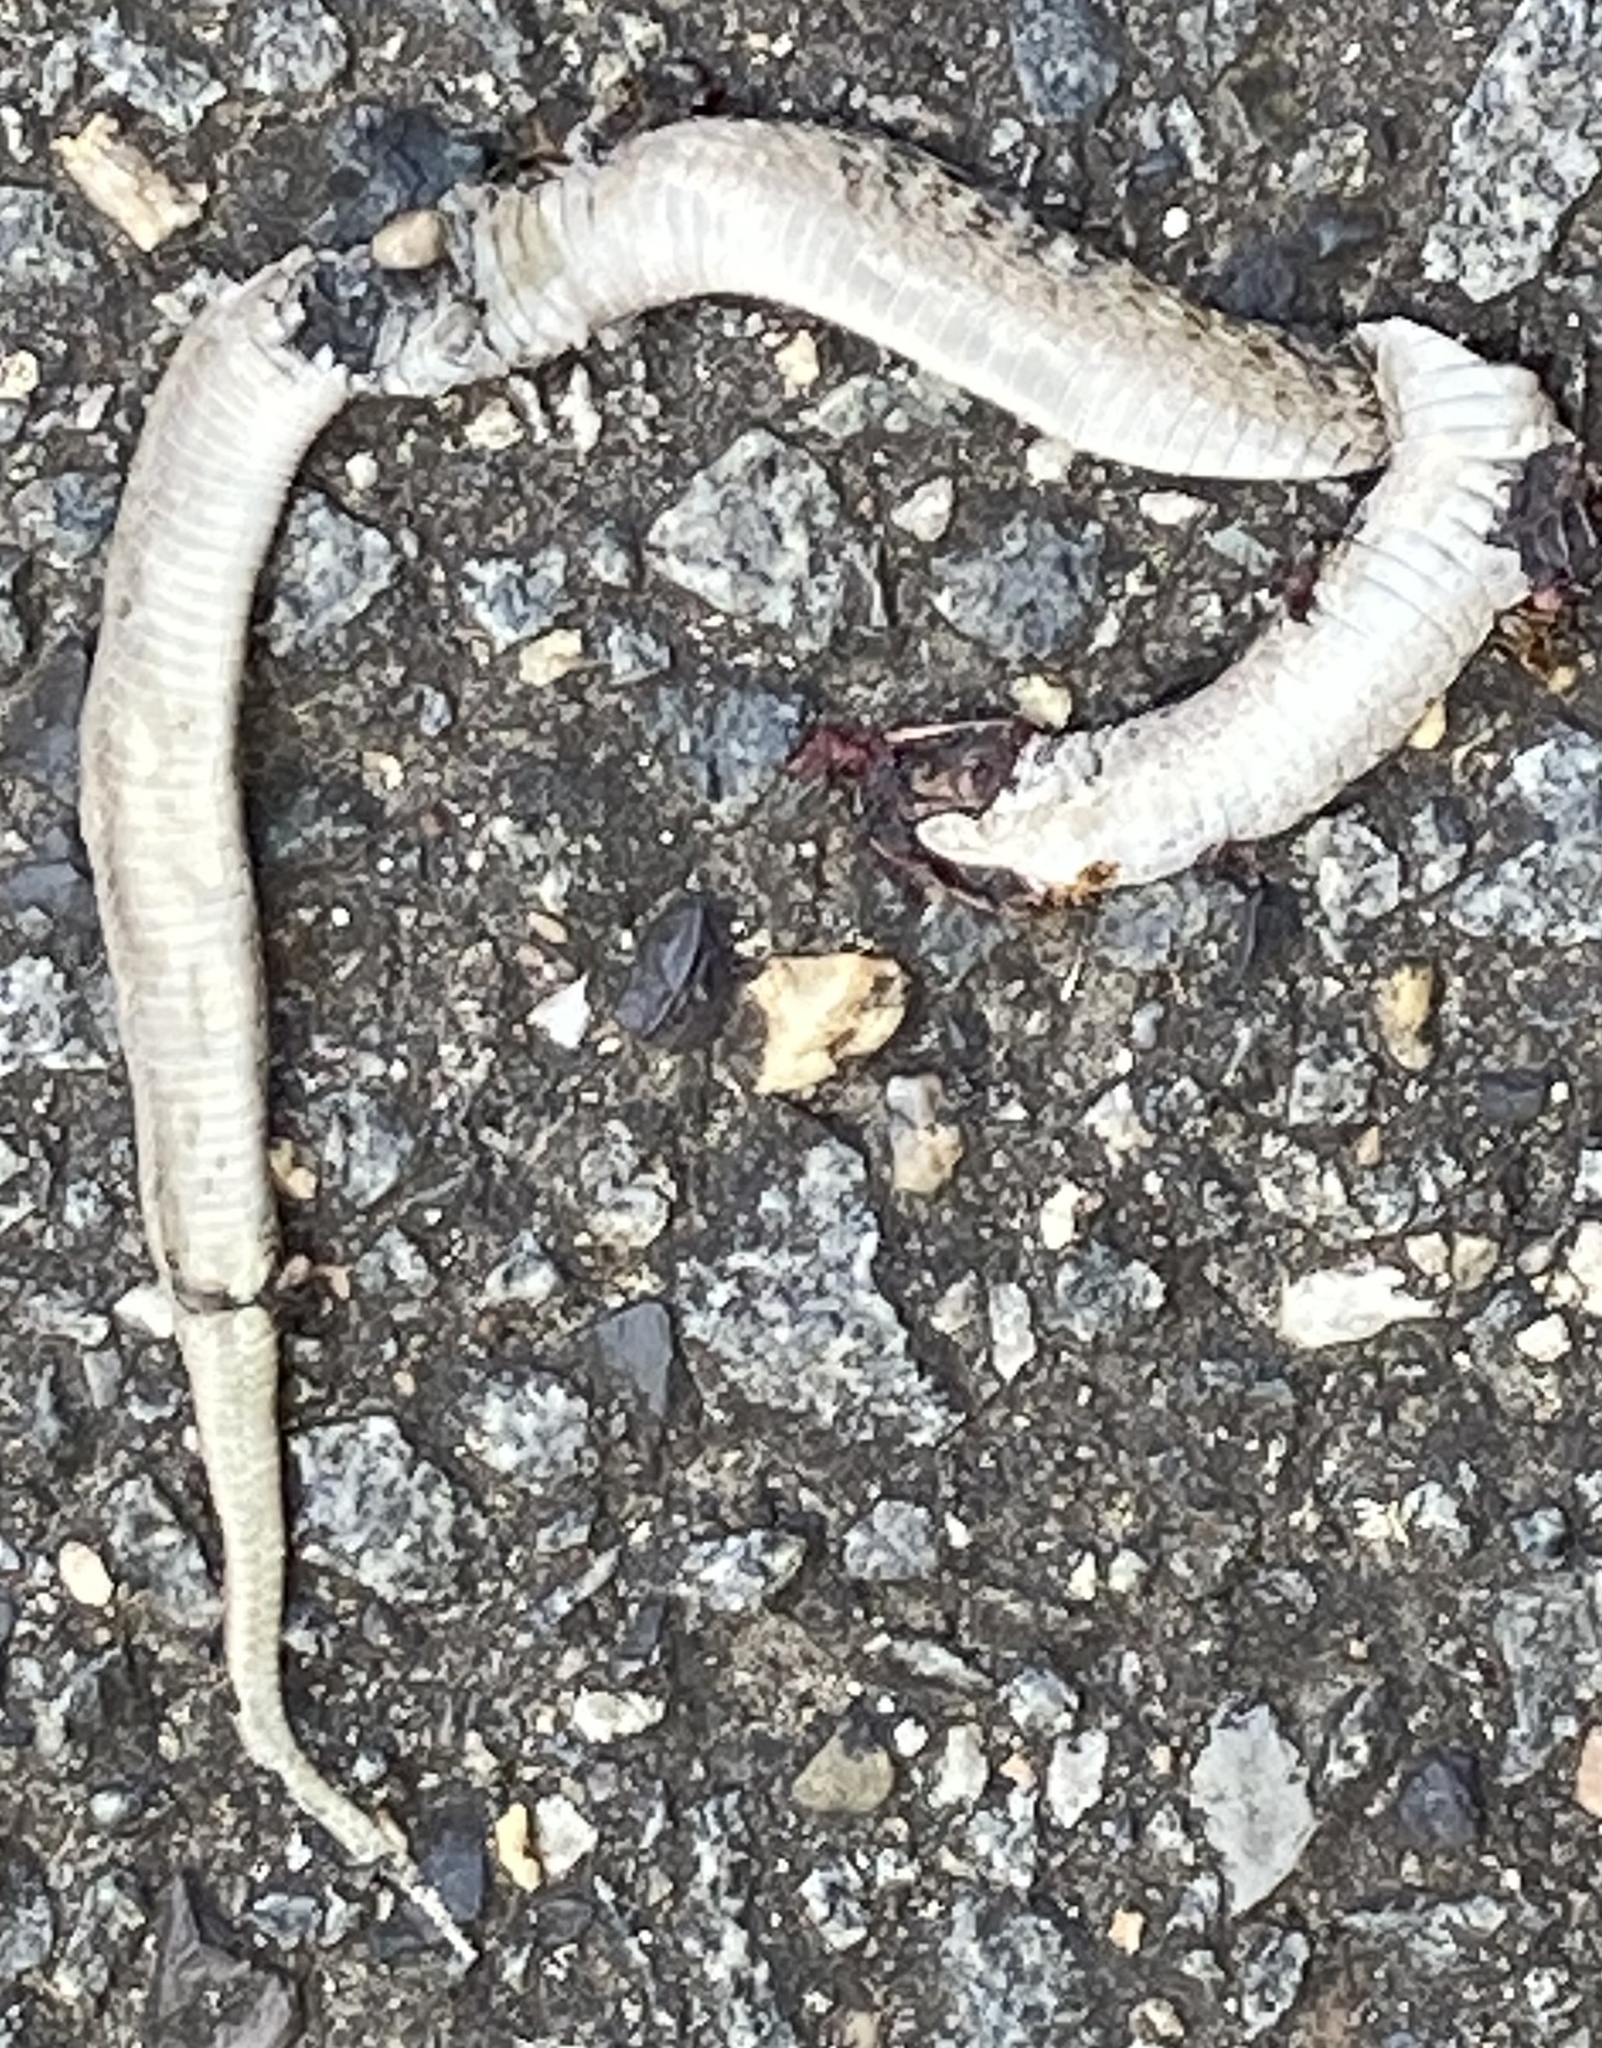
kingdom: Animalia
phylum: Chordata
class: Squamata
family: Colubridae
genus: Storeria
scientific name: Storeria dekayi
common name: (dekay’s) brown snake
